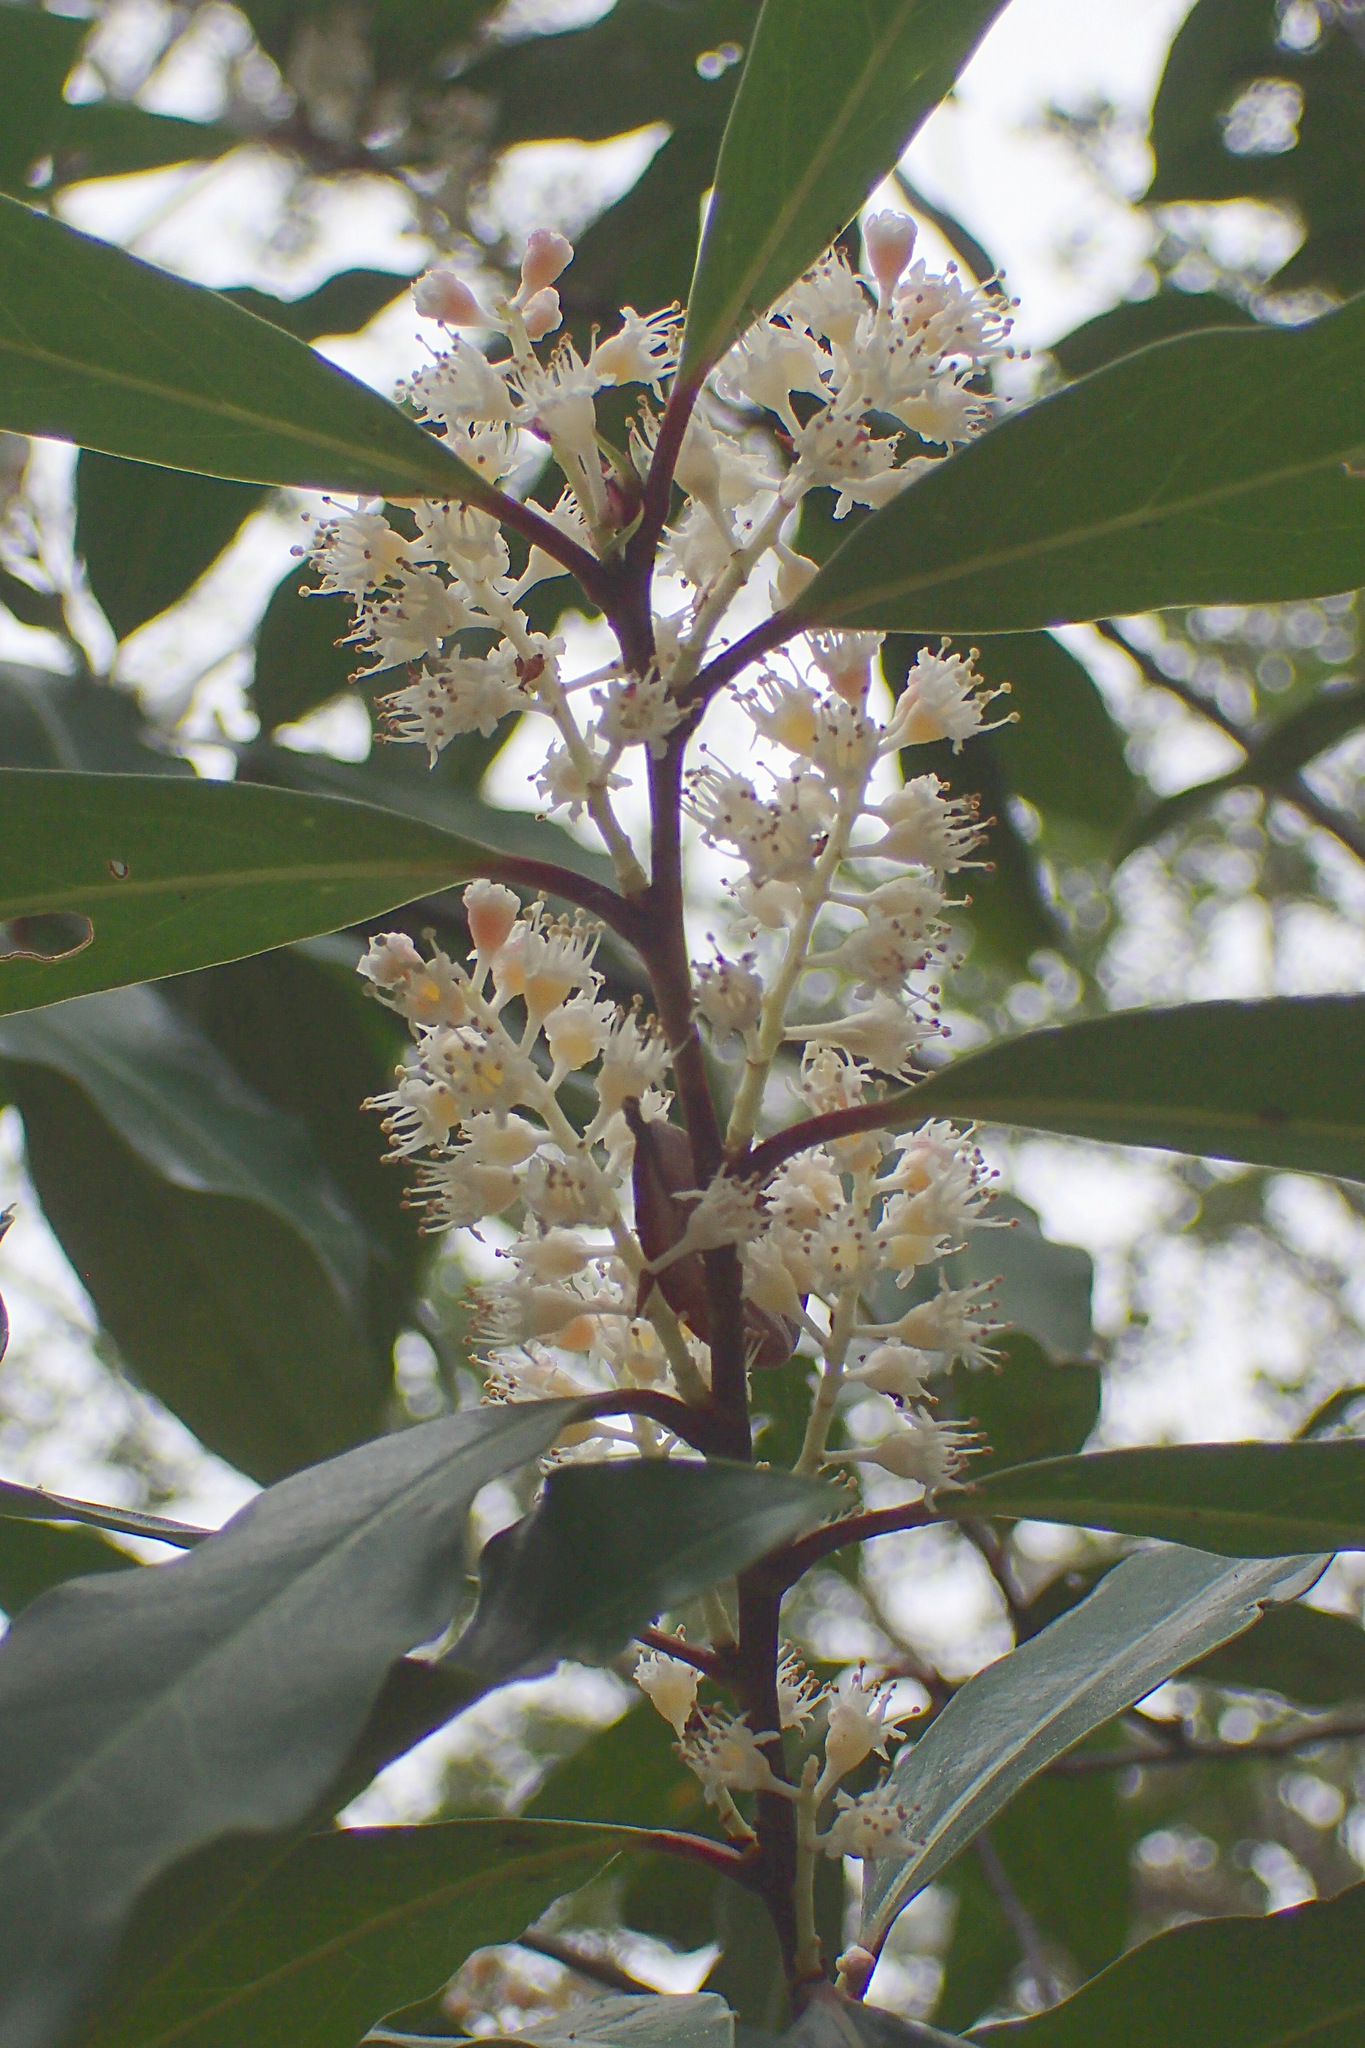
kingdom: Plantae
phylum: Tracheophyta
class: Magnoliopsida
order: Rosales
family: Rosaceae
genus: Prunus
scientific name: Prunus caroliniana
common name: Carolina laurel cherry
